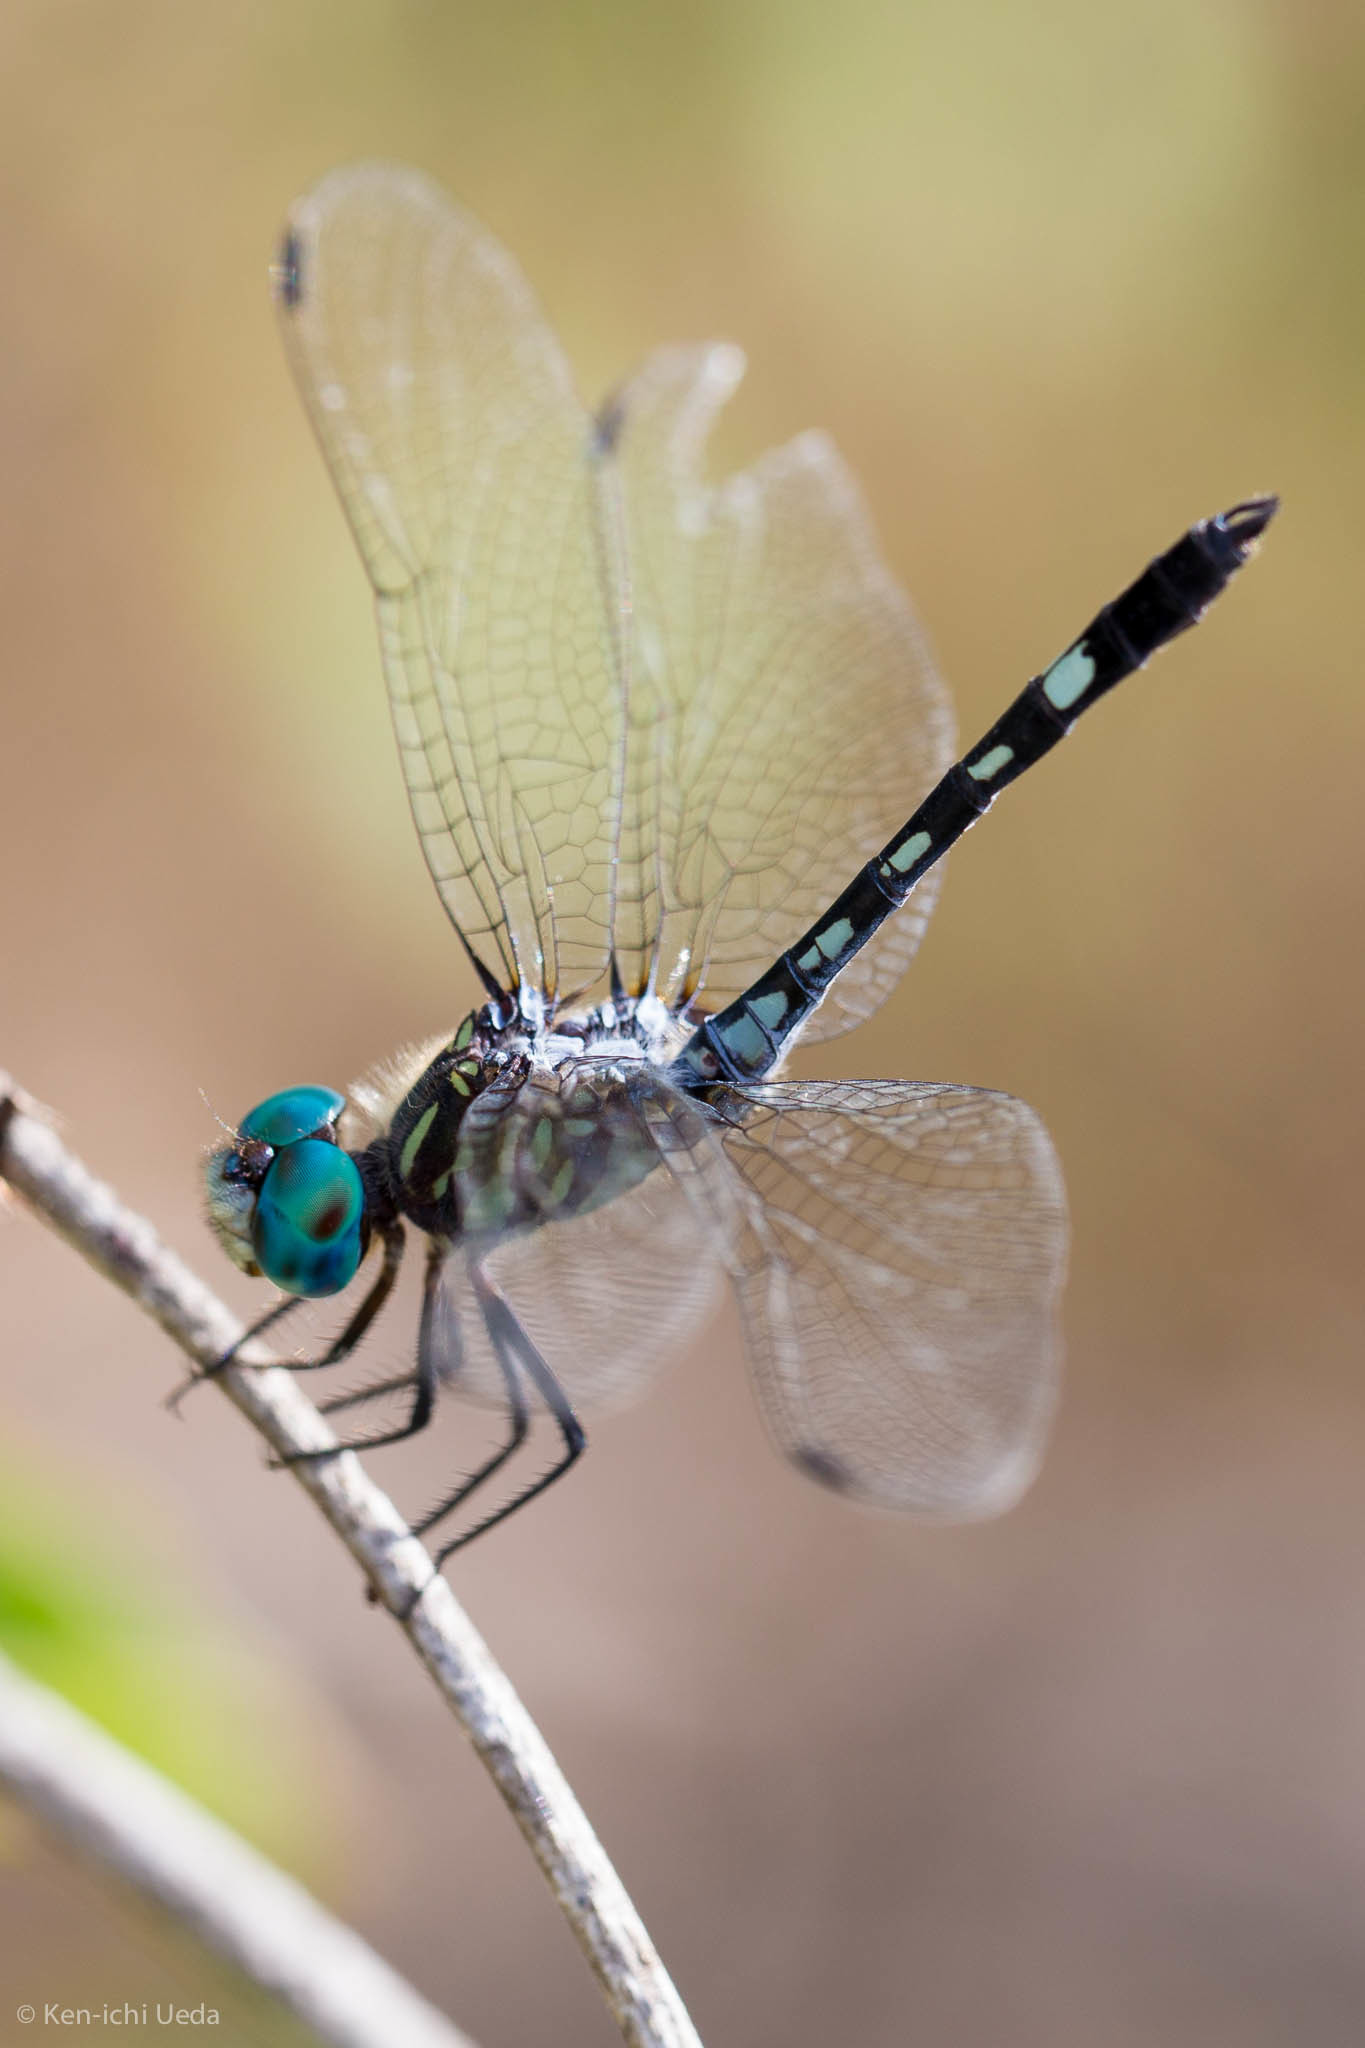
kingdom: Animalia
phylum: Arthropoda
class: Insecta
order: Odonata
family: Libellulidae
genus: Micrathyria
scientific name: Micrathyria hagenii
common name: Thornbush dasher
